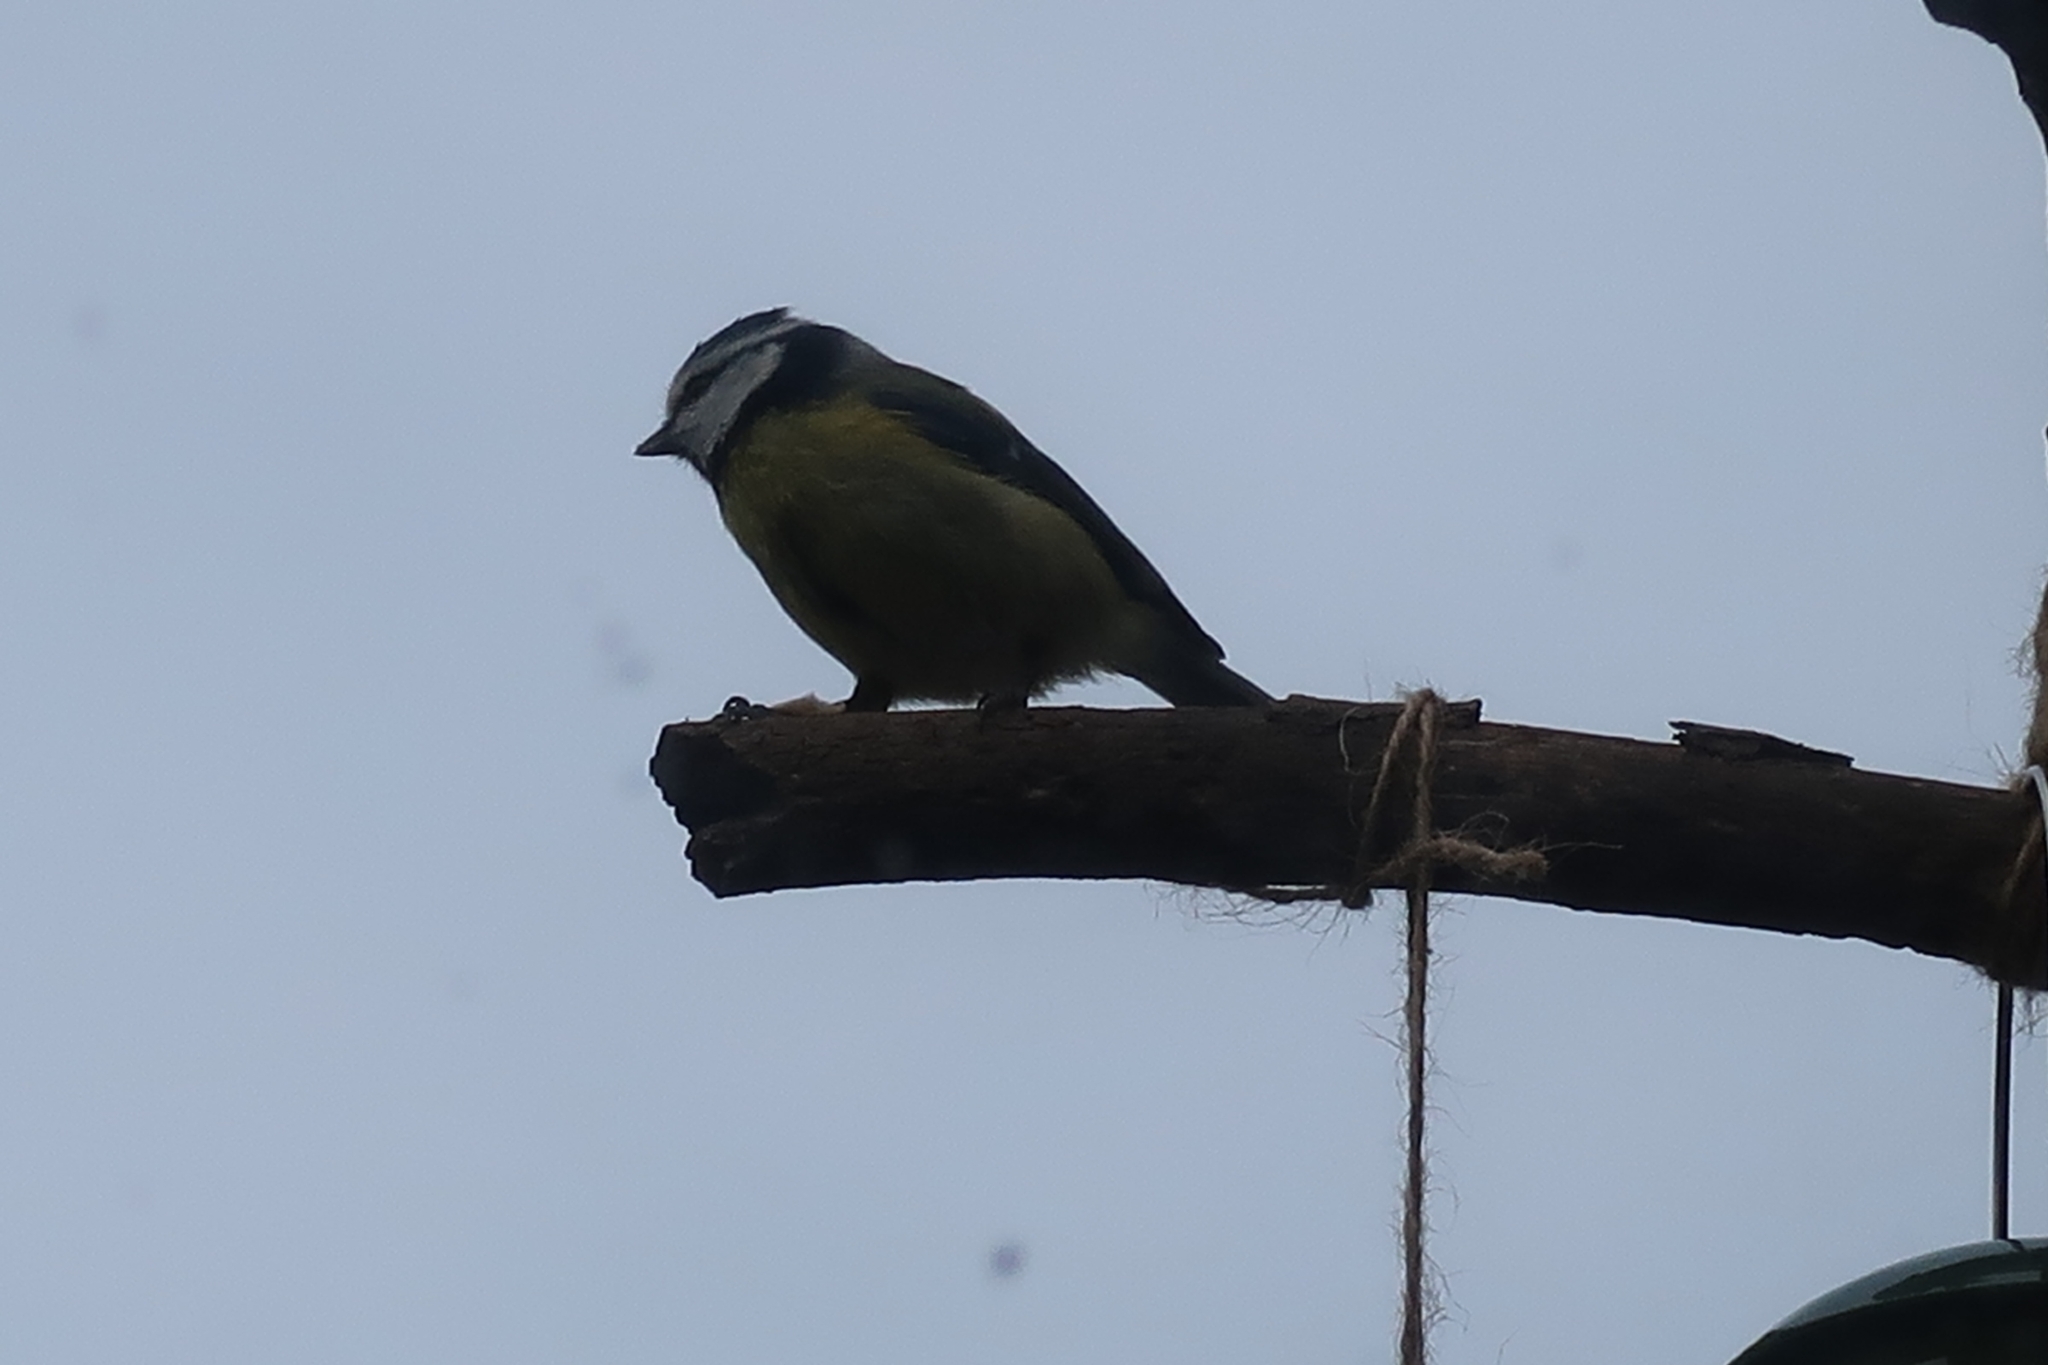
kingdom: Animalia
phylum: Chordata
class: Aves
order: Passeriformes
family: Paridae
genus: Cyanistes
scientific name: Cyanistes caeruleus
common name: Eurasian blue tit
